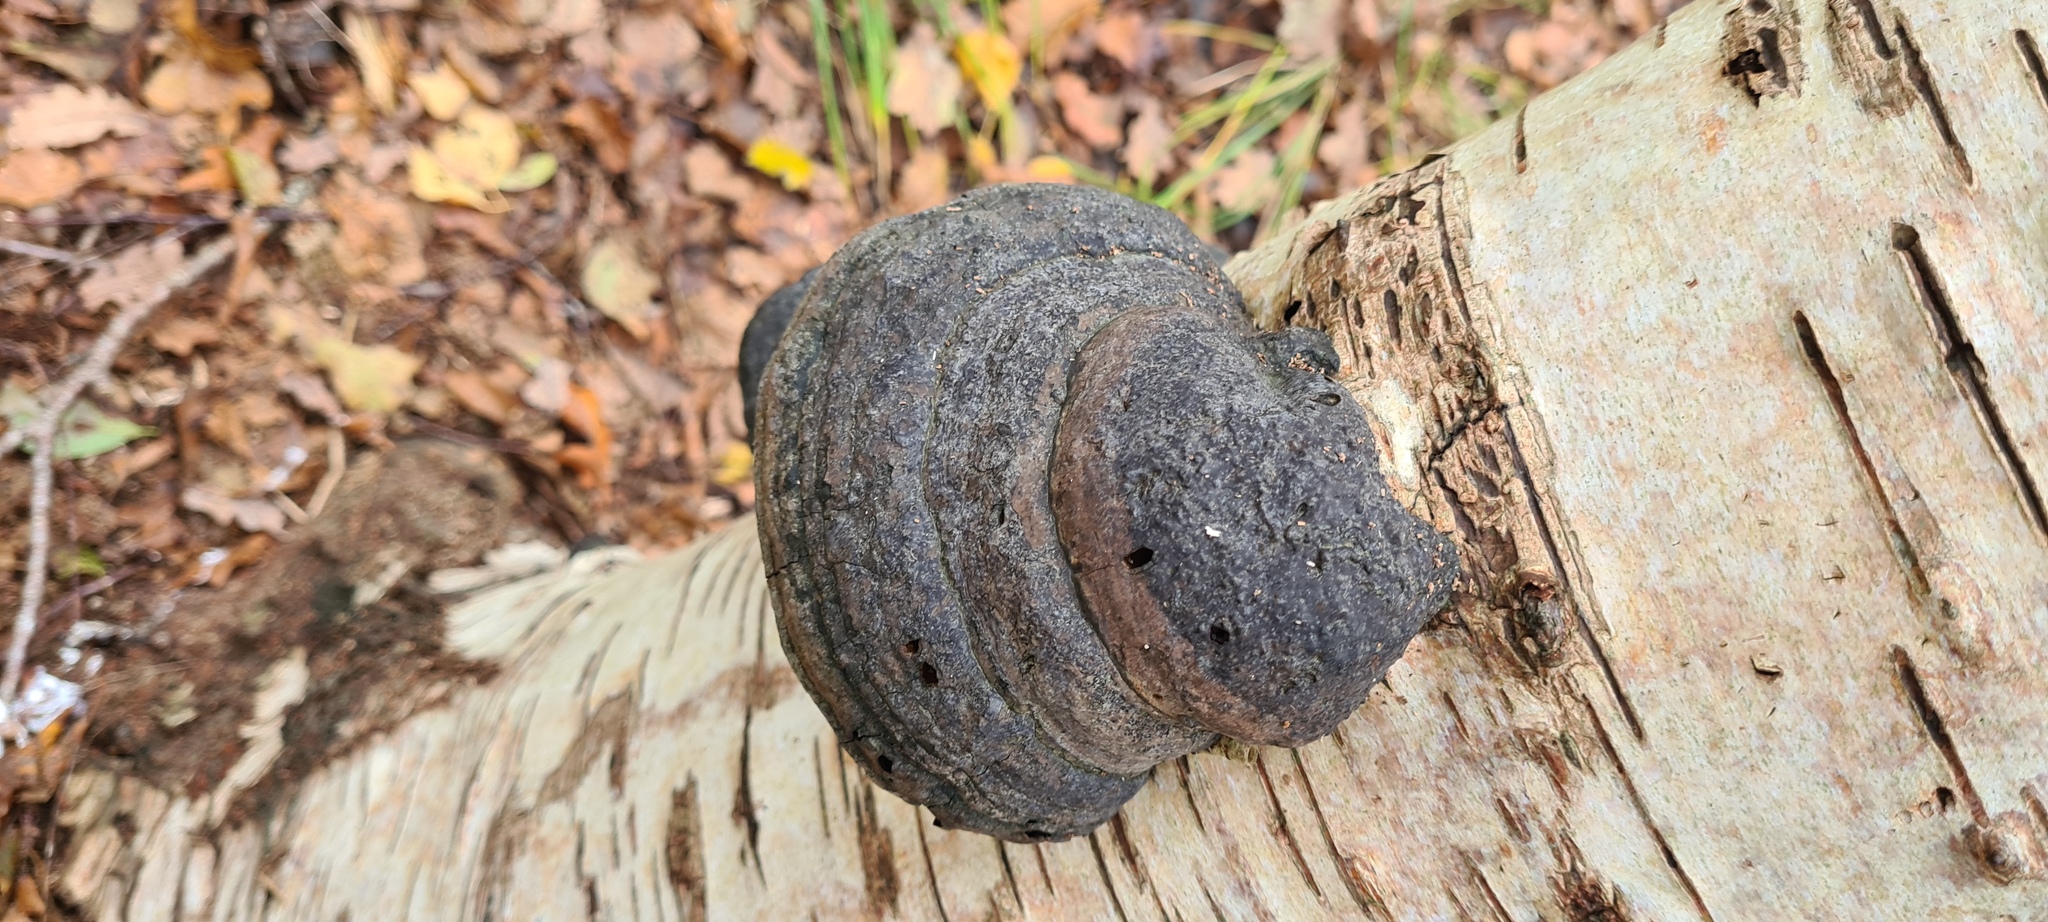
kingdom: Fungi
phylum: Basidiomycota
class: Agaricomycetes
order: Polyporales
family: Polyporaceae
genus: Fomes
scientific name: Fomes fomentarius
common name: Hoof fungus
